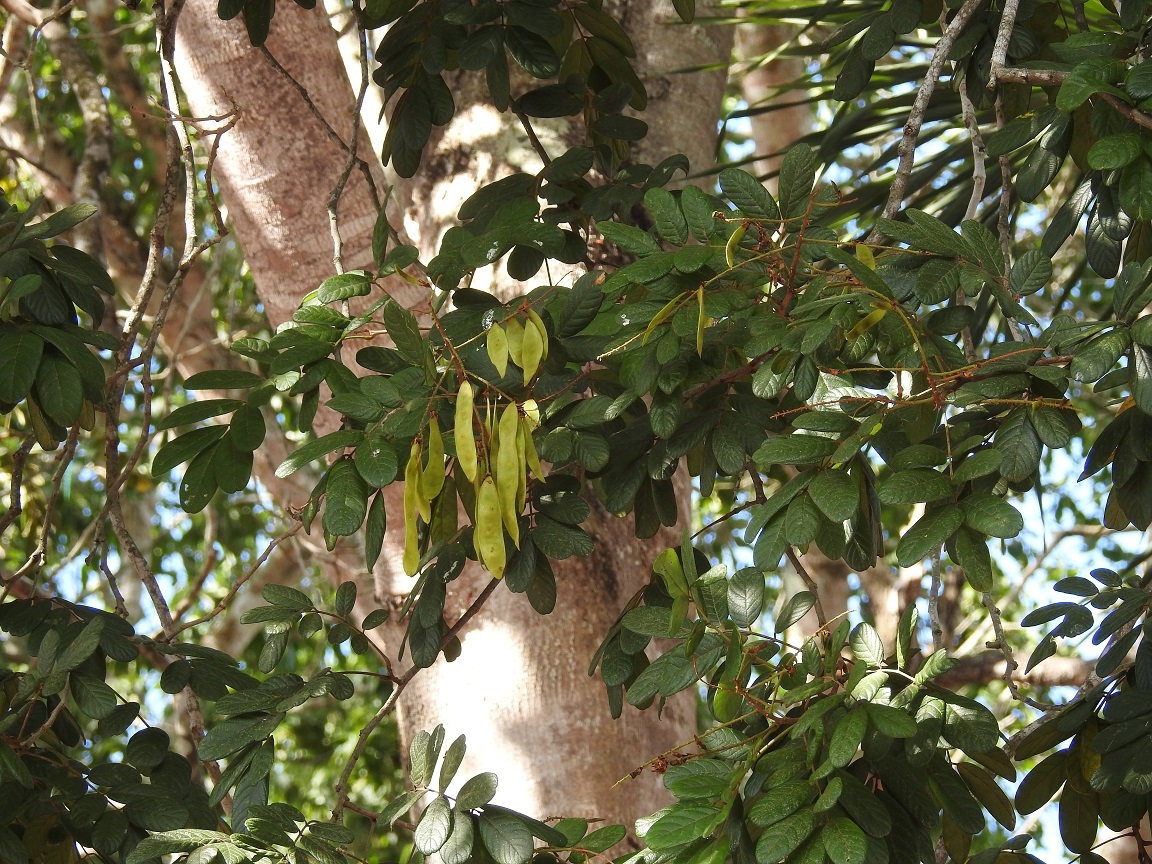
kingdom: Plantae
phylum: Tracheophyta
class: Magnoliopsida
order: Fabales
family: Fabaceae
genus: Lonchocarpus
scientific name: Lonchocarpus rugosus
